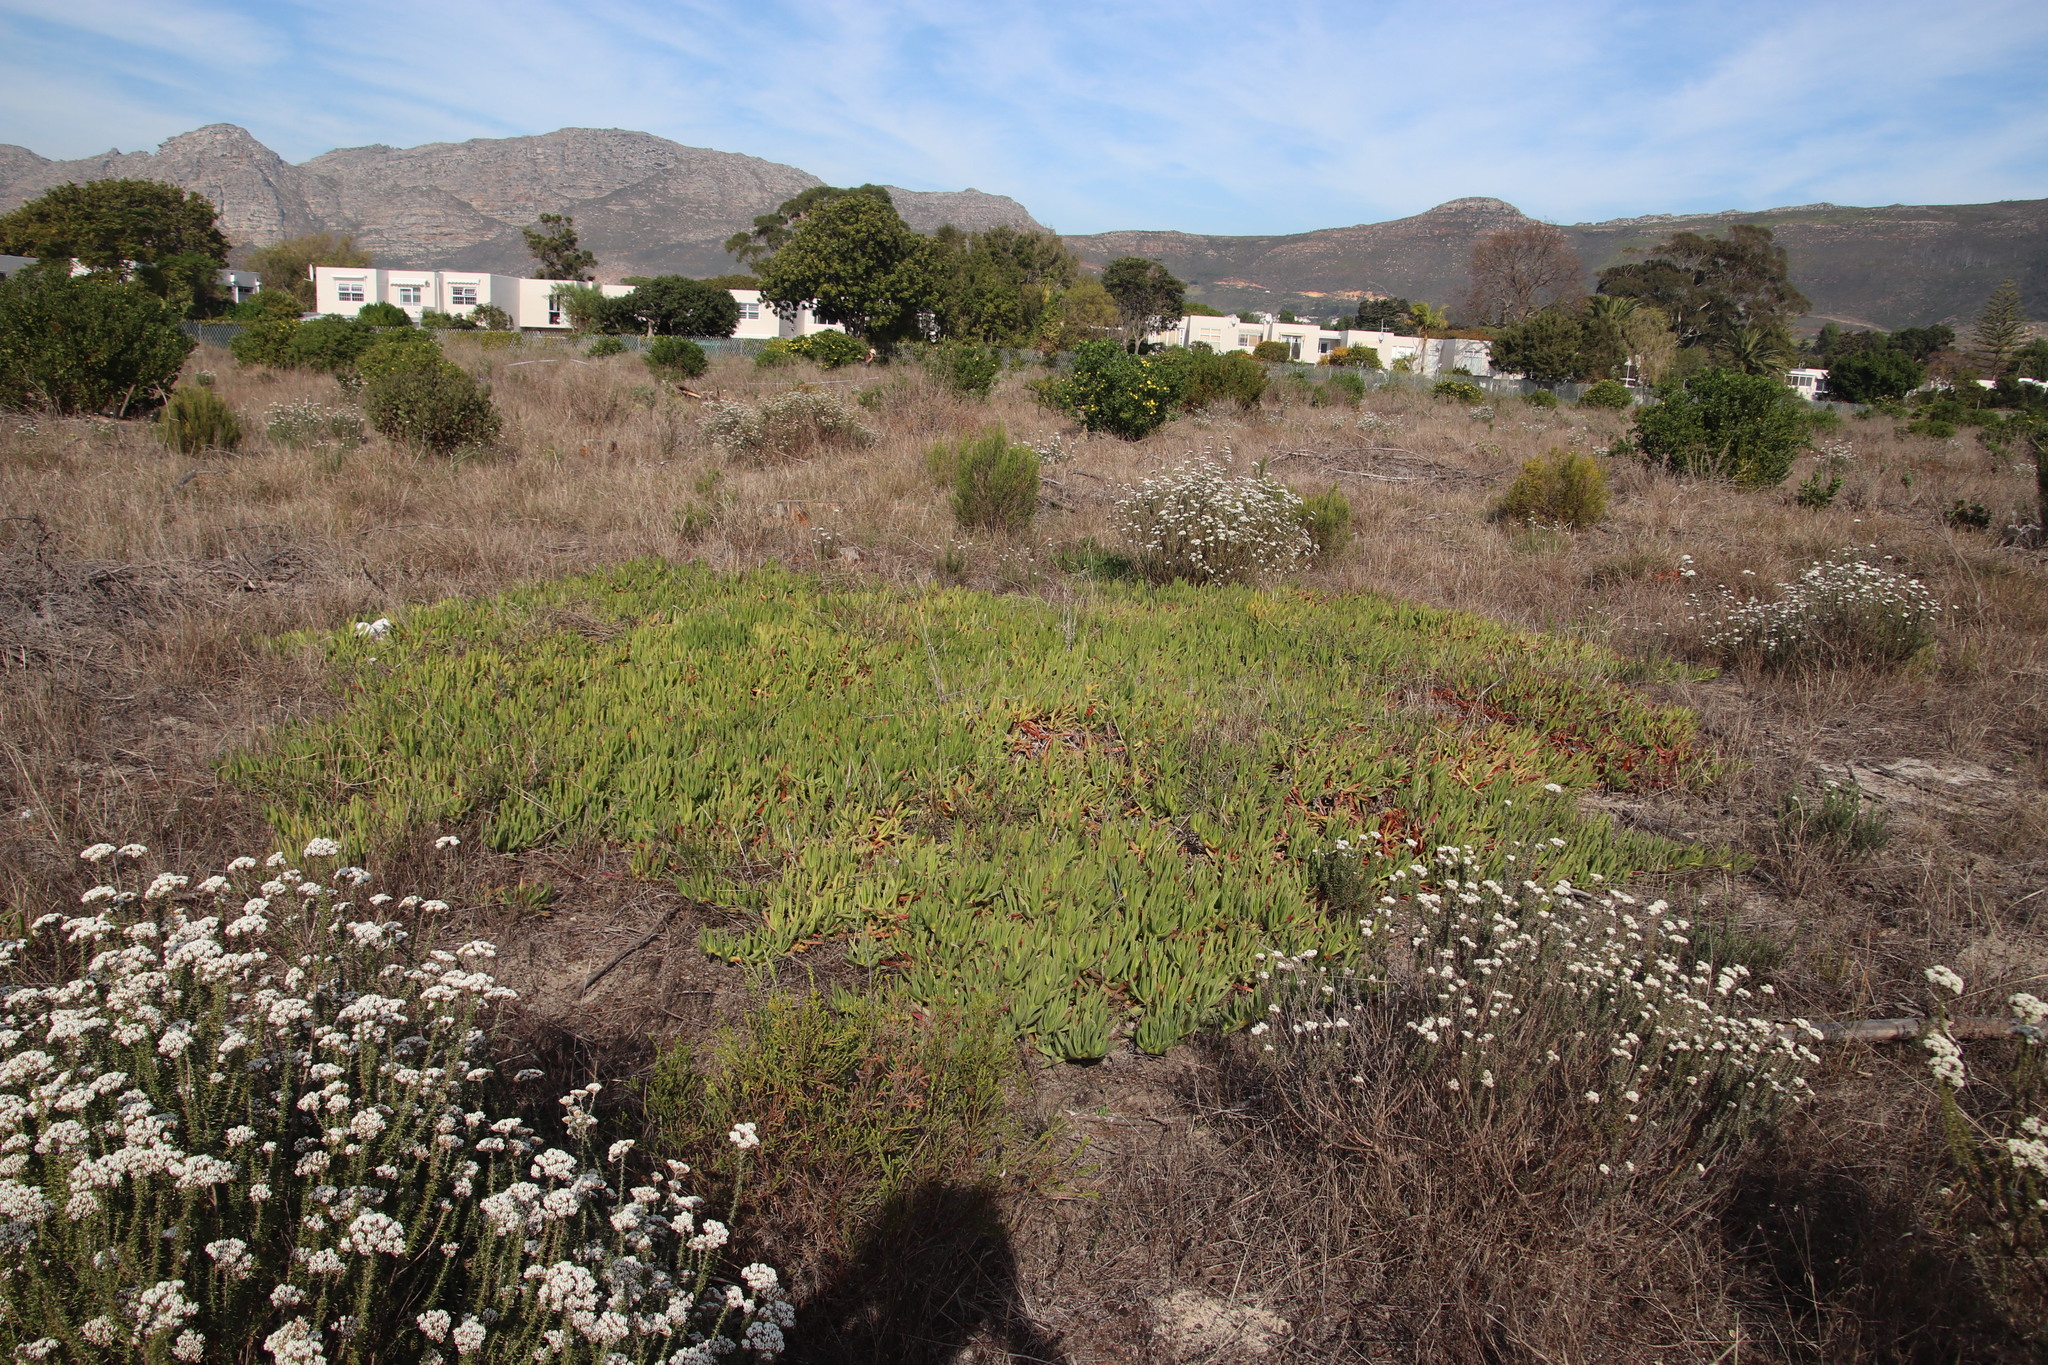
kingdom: Plantae
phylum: Tracheophyta
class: Magnoliopsida
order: Caryophyllales
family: Aizoaceae
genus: Carpobrotus
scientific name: Carpobrotus edulis
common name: Hottentot-fig
